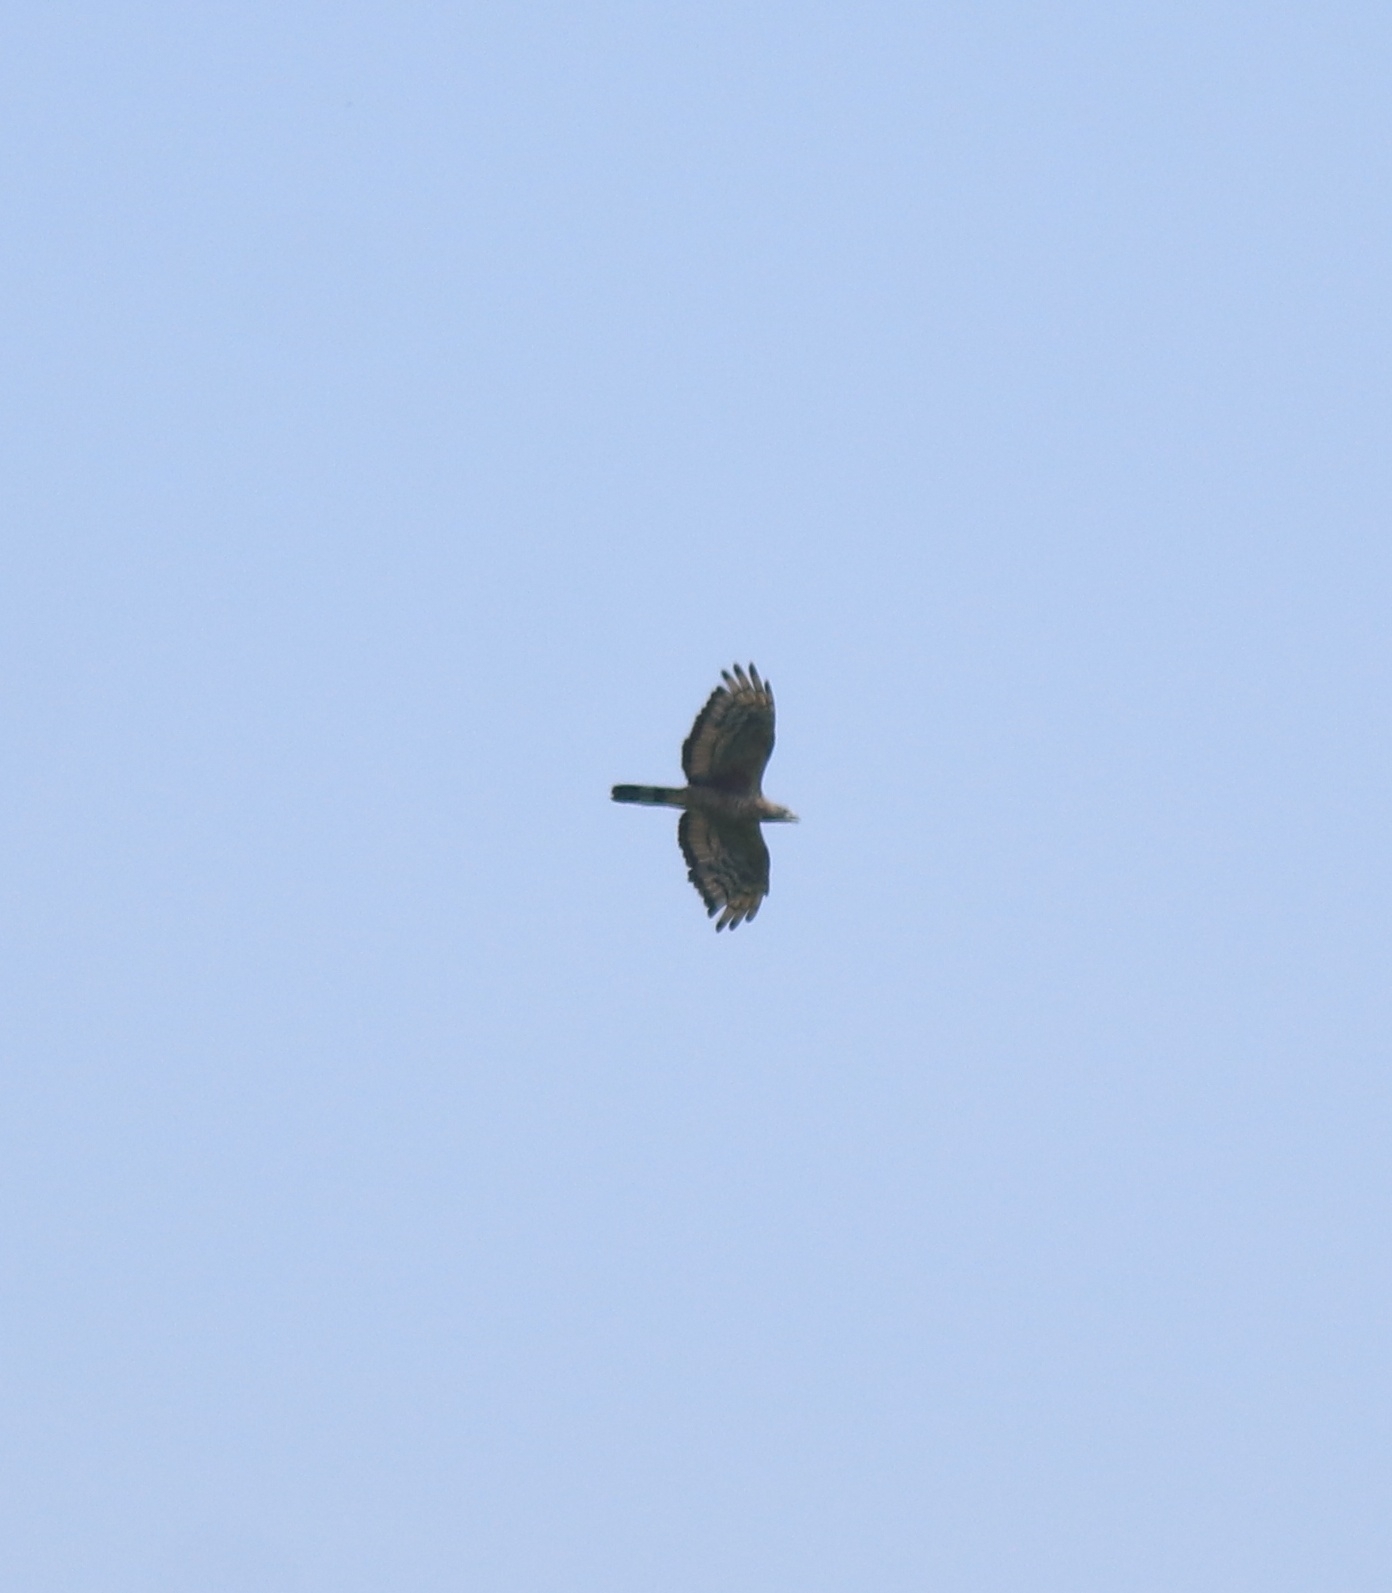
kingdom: Animalia
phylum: Chordata
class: Aves
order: Accipitriformes
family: Accipitridae
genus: Pernis
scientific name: Pernis ptilorhynchus
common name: Crested honey buzzard
